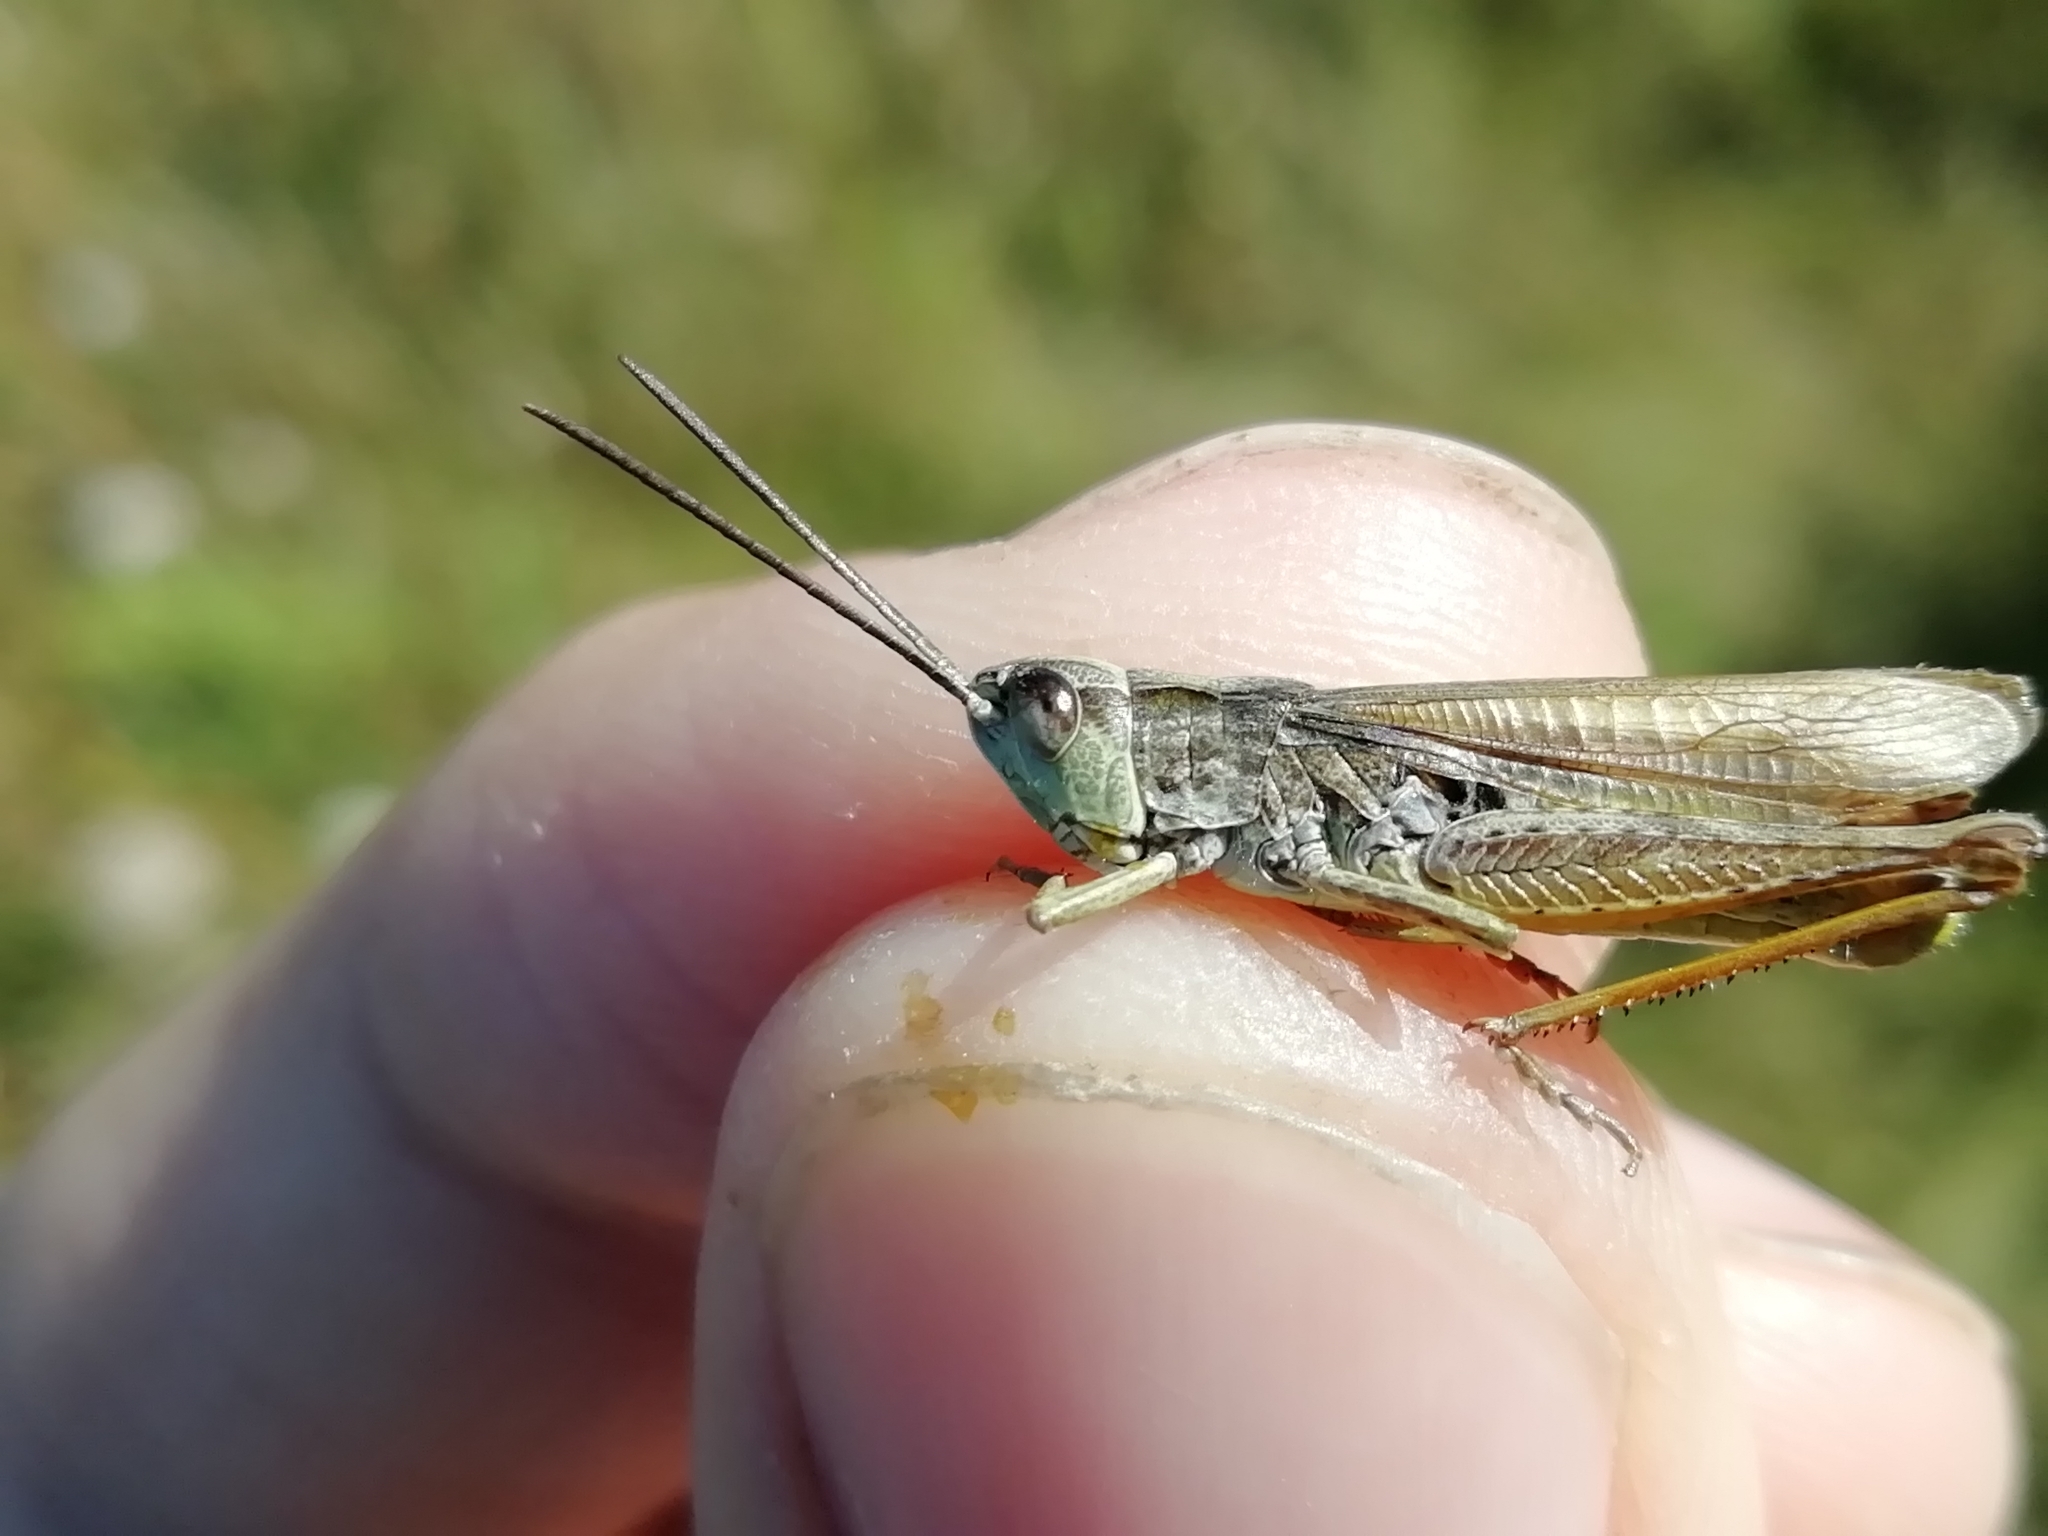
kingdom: Animalia
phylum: Arthropoda
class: Insecta
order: Orthoptera
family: Acrididae
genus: Chorthippus
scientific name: Chorthippus apricarius
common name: Upland field grasshopper
